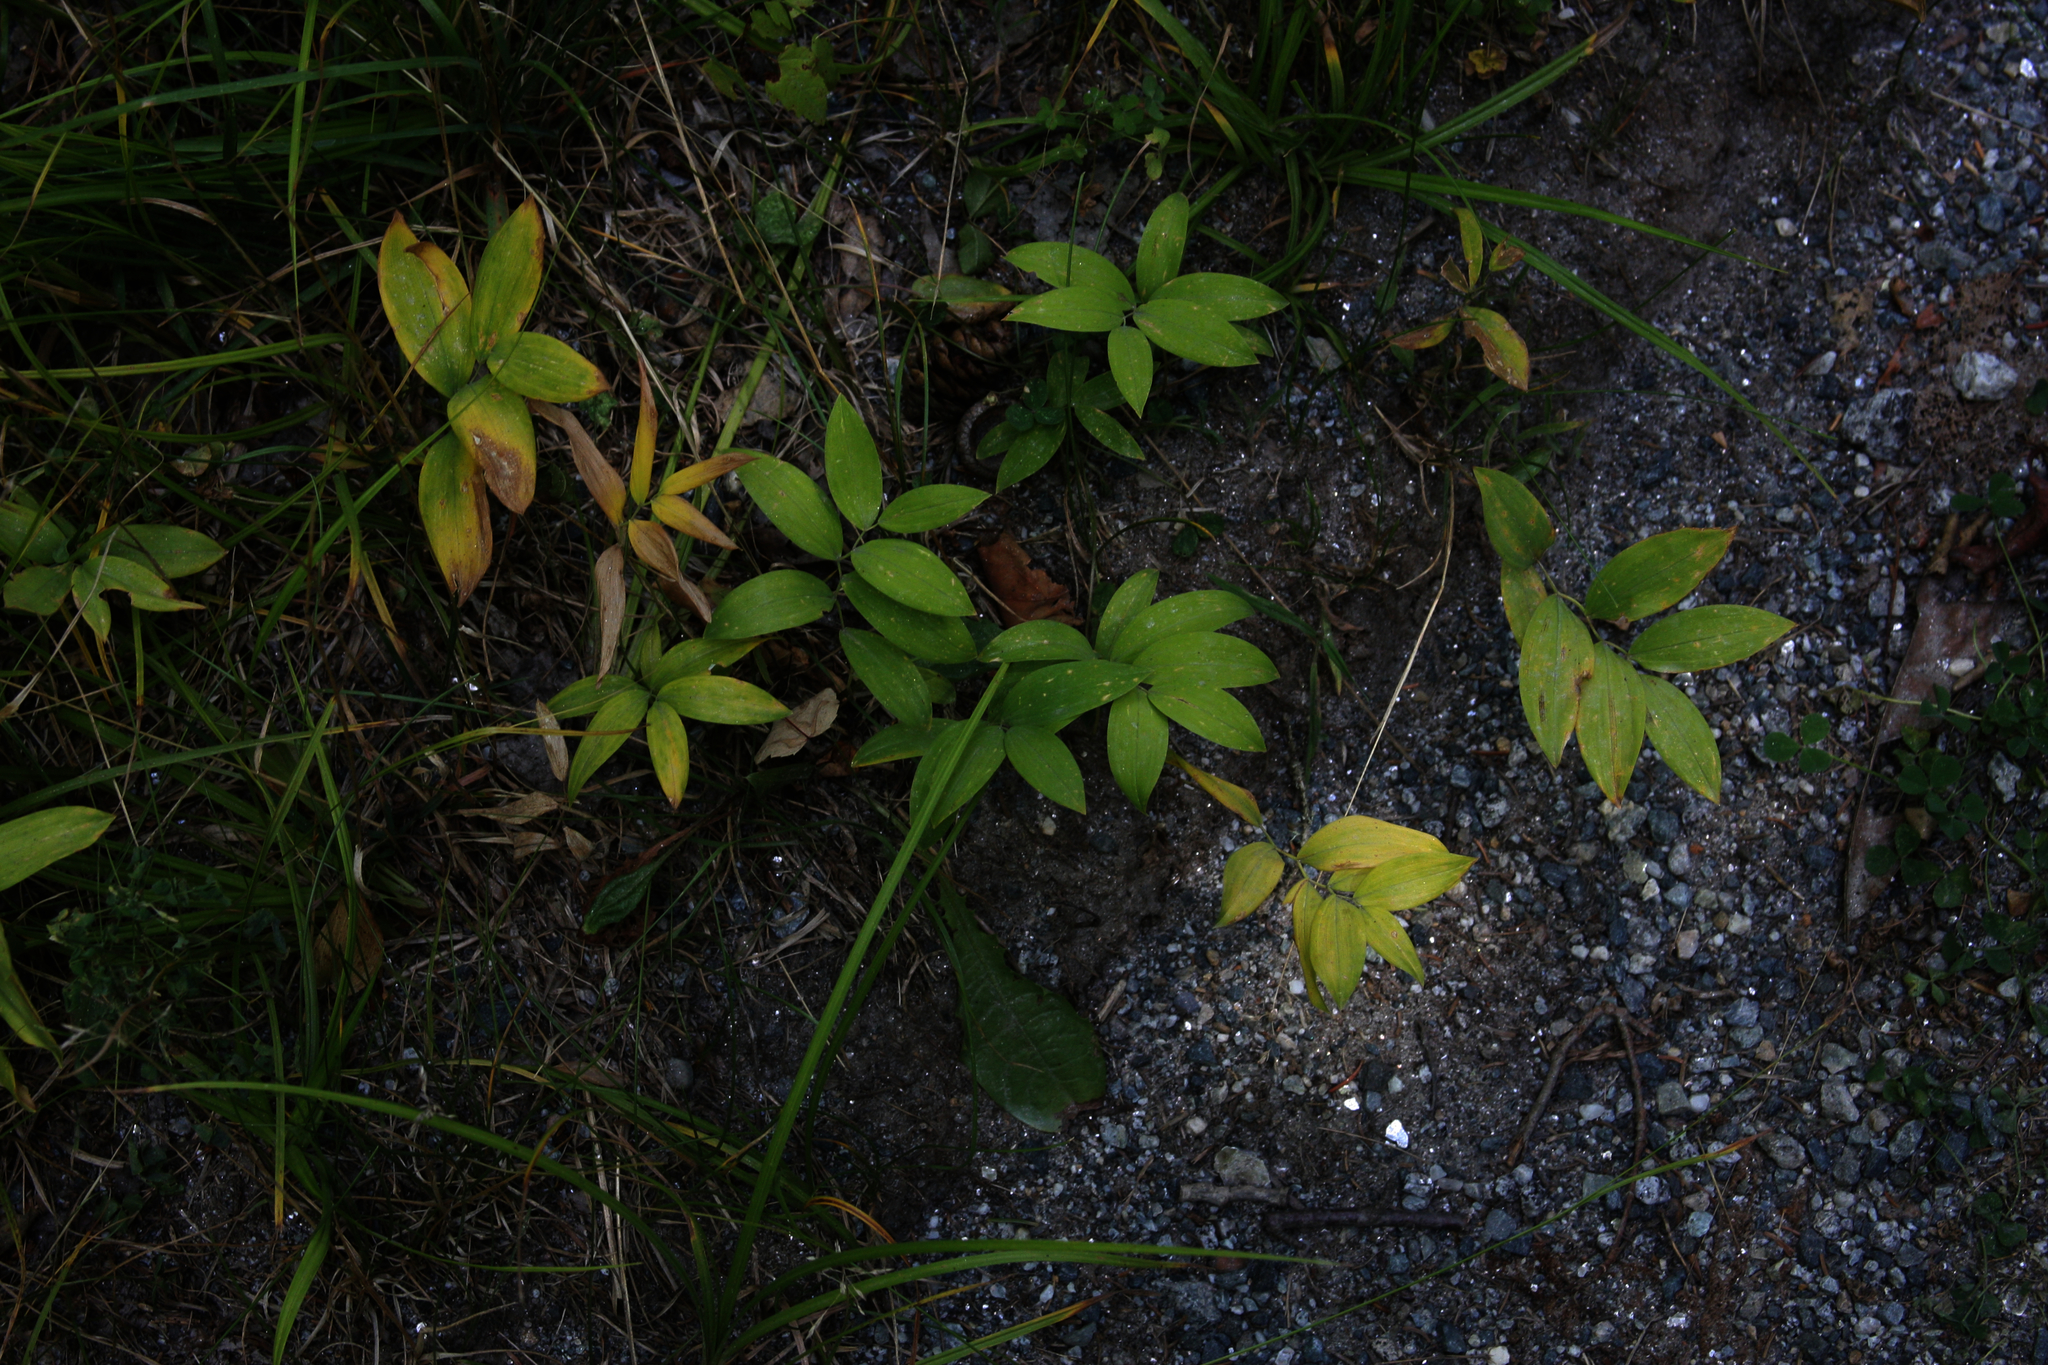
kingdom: Plantae
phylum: Tracheophyta
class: Liliopsida
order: Liliales
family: Colchicaceae
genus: Uvularia
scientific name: Uvularia sessilifolia
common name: Straw-lily
